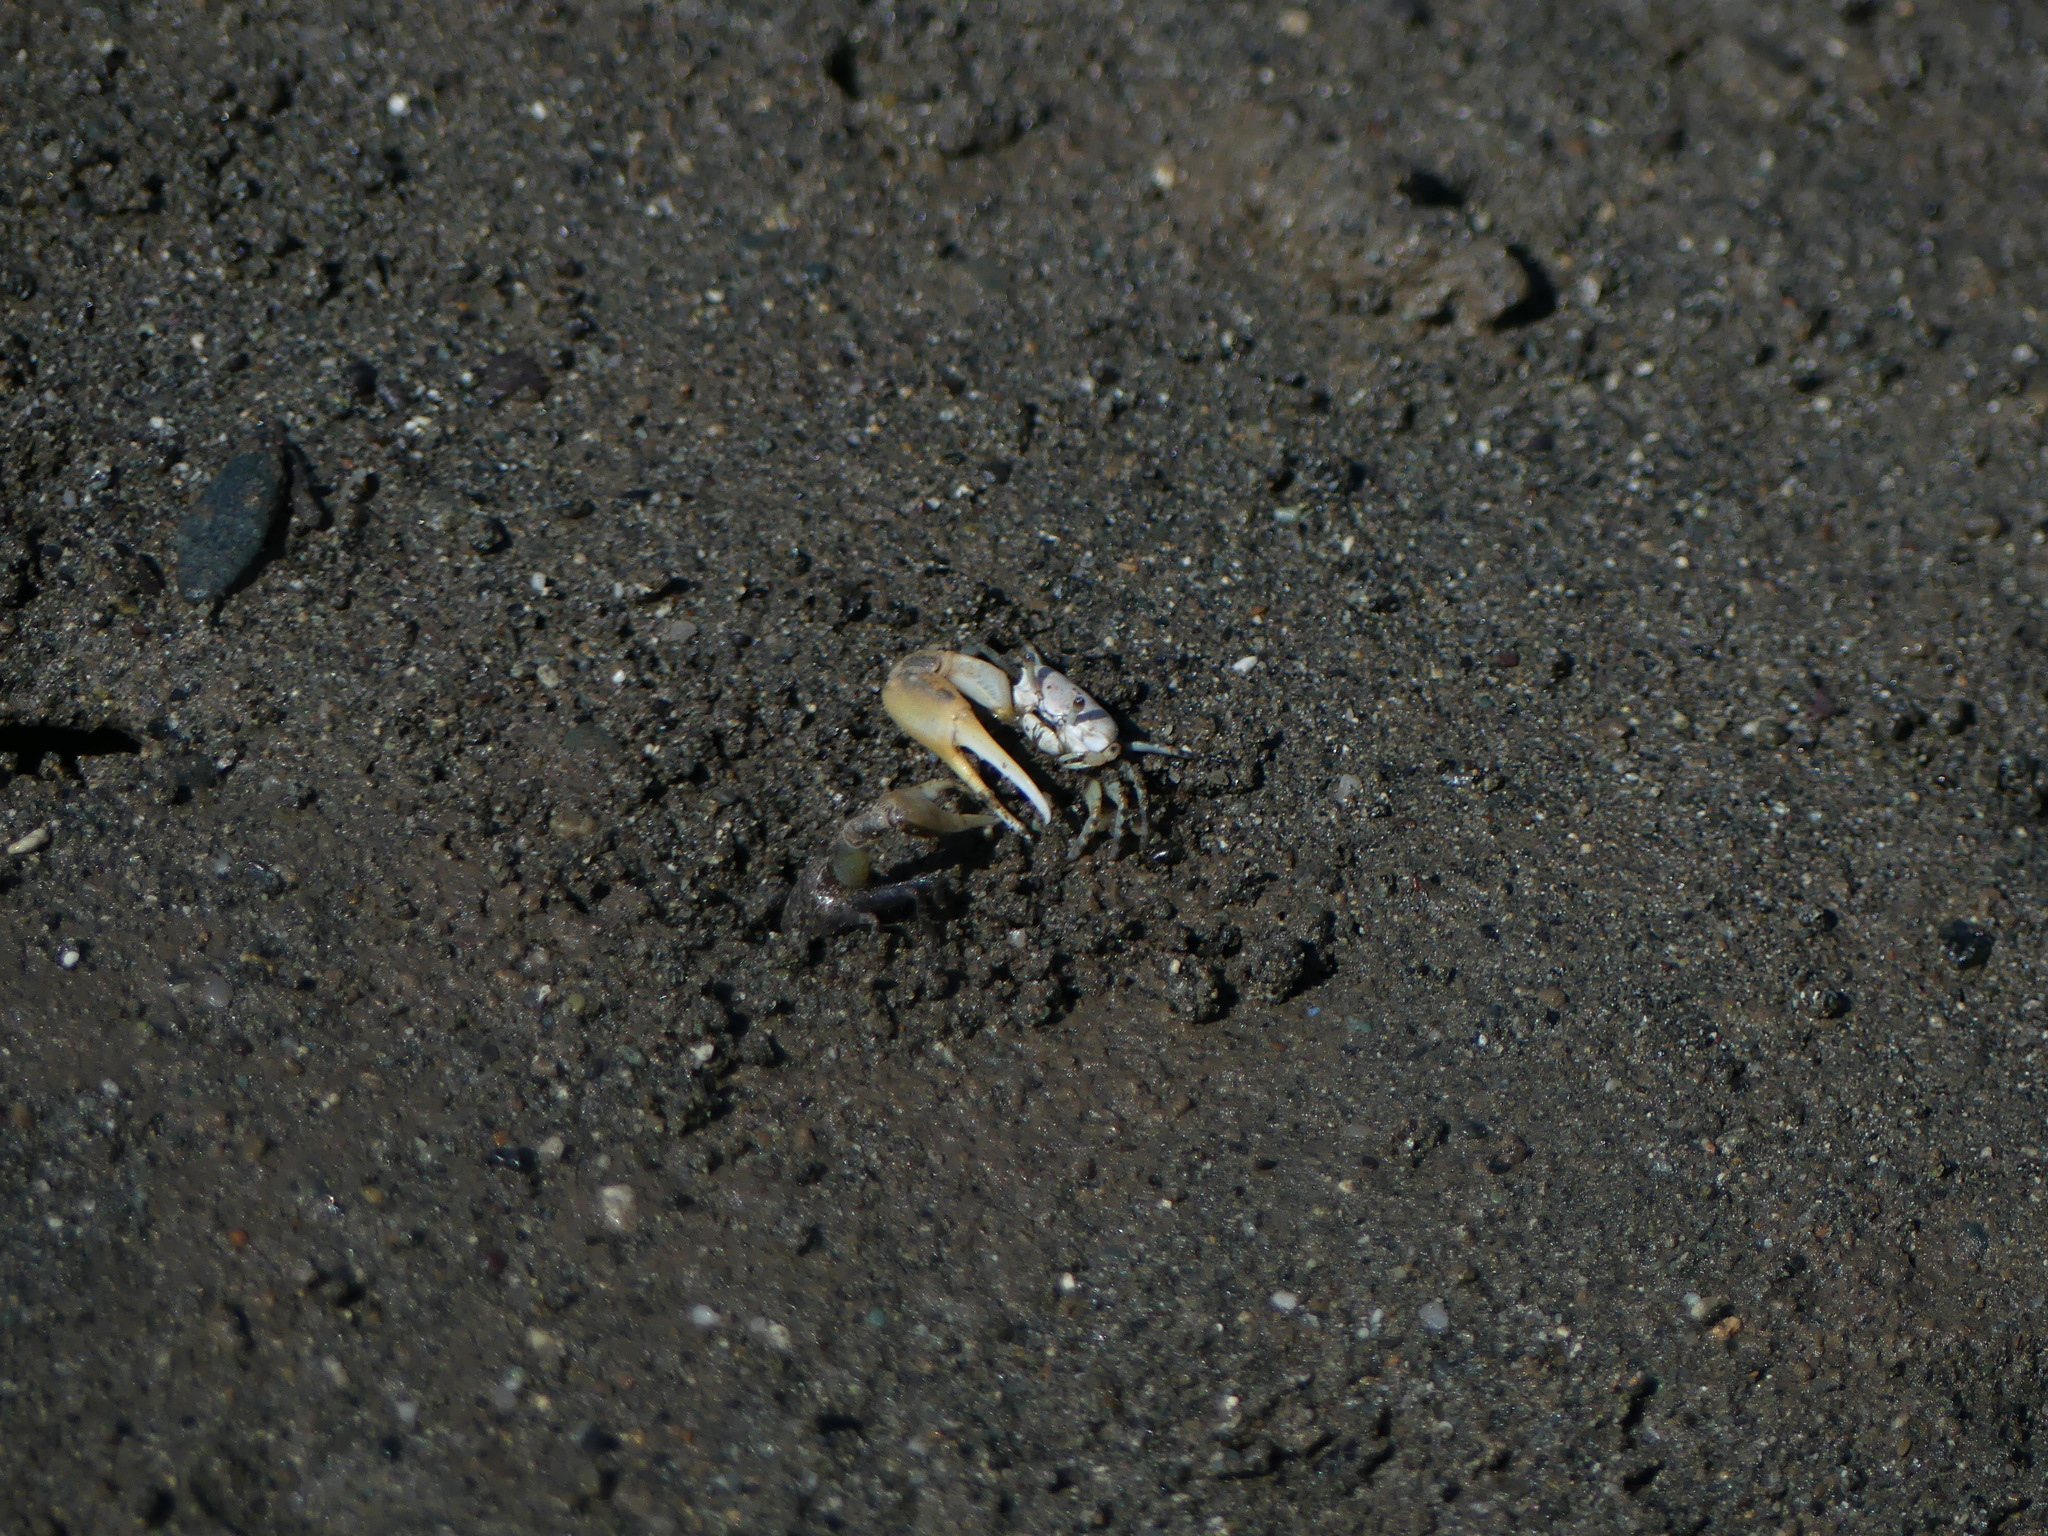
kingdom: Animalia
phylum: Arthropoda
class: Malacostraca
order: Decapoda
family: Ocypodidae
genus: Leptuca
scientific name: Leptuca leptodactyla
